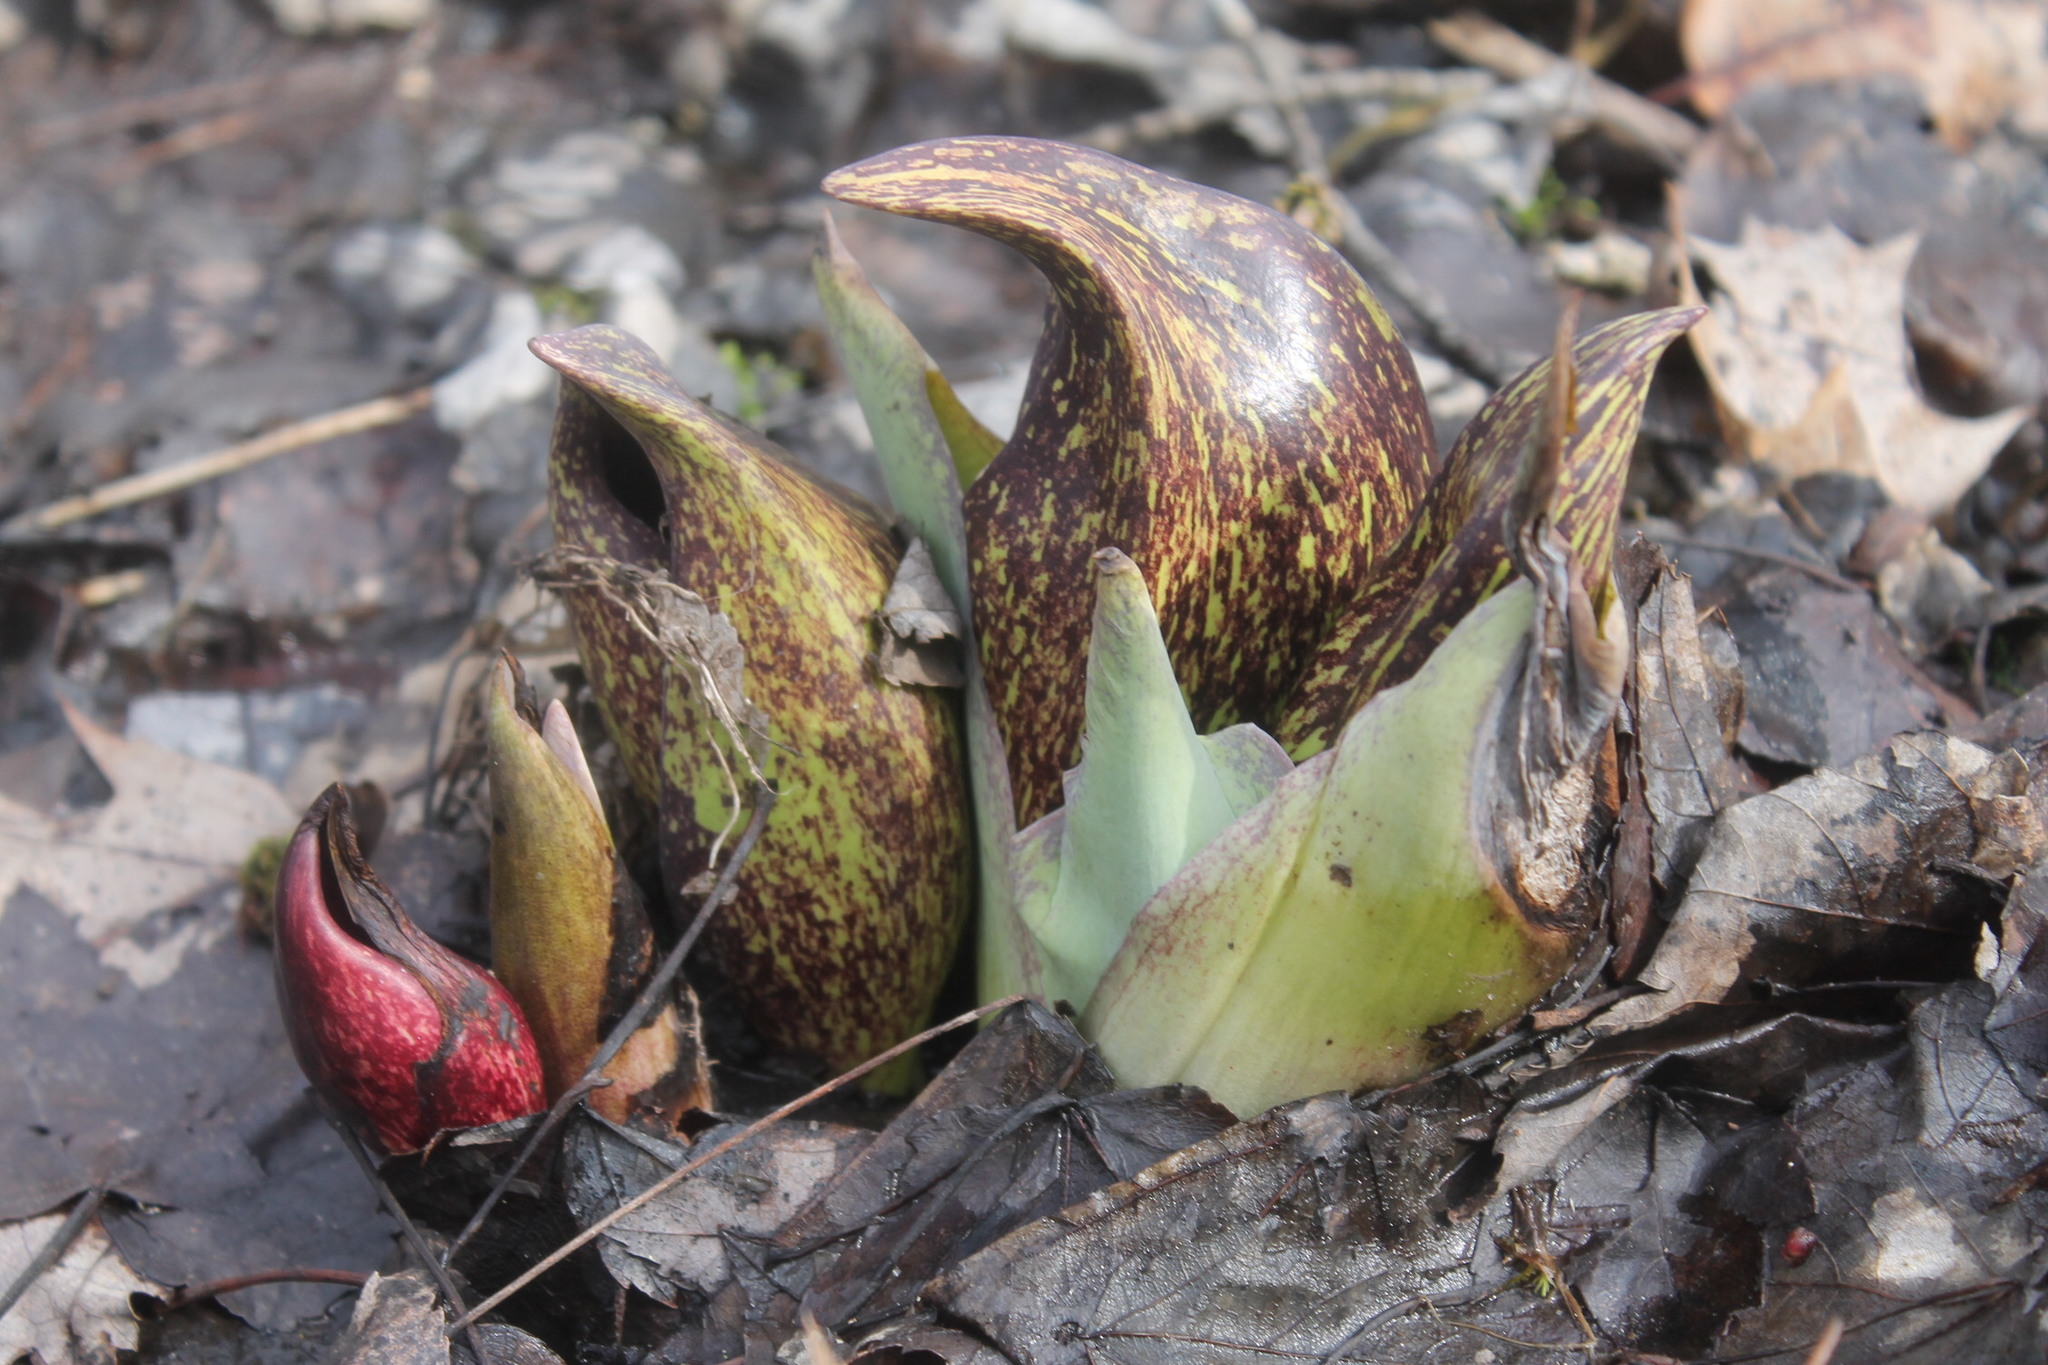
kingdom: Plantae
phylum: Tracheophyta
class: Liliopsida
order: Alismatales
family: Araceae
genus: Symplocarpus
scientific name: Symplocarpus foetidus
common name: Eastern skunk cabbage
